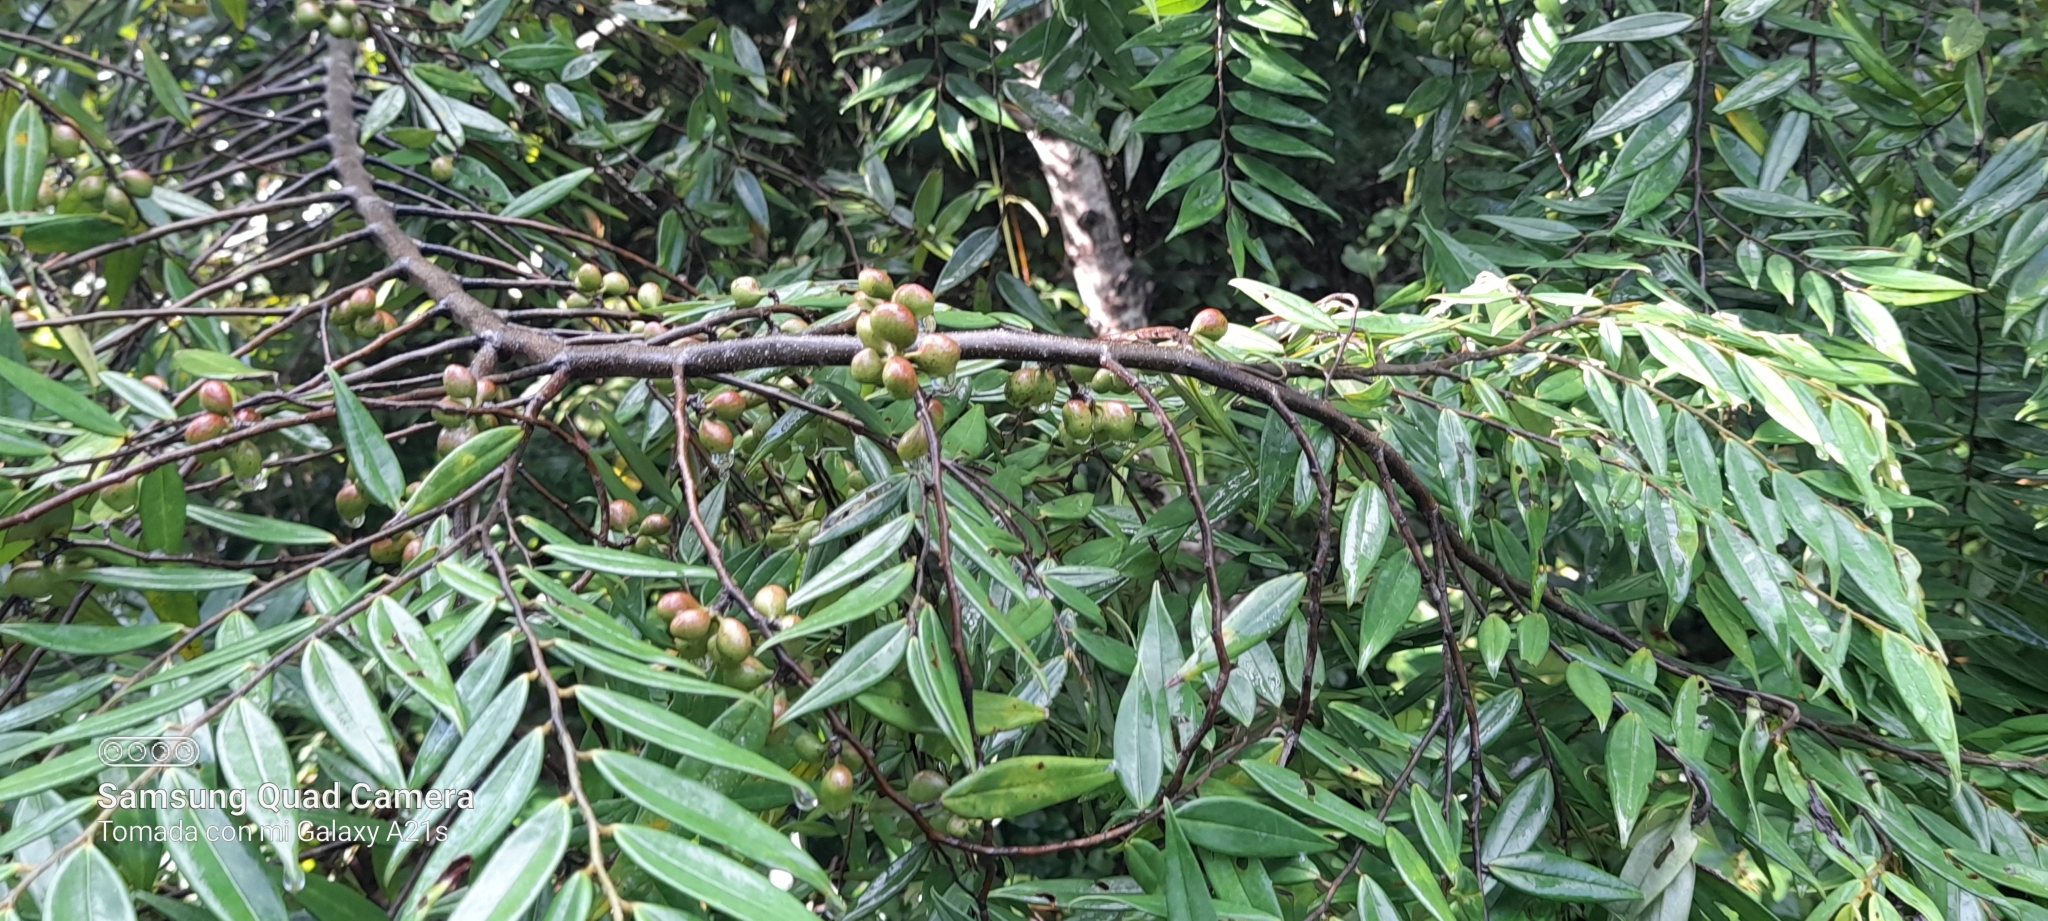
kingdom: Plantae
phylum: Tracheophyta
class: Magnoliopsida
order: Sapindales
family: Meliaceae
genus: Cedrela
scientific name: Cedrela odorata
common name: Red cedar
